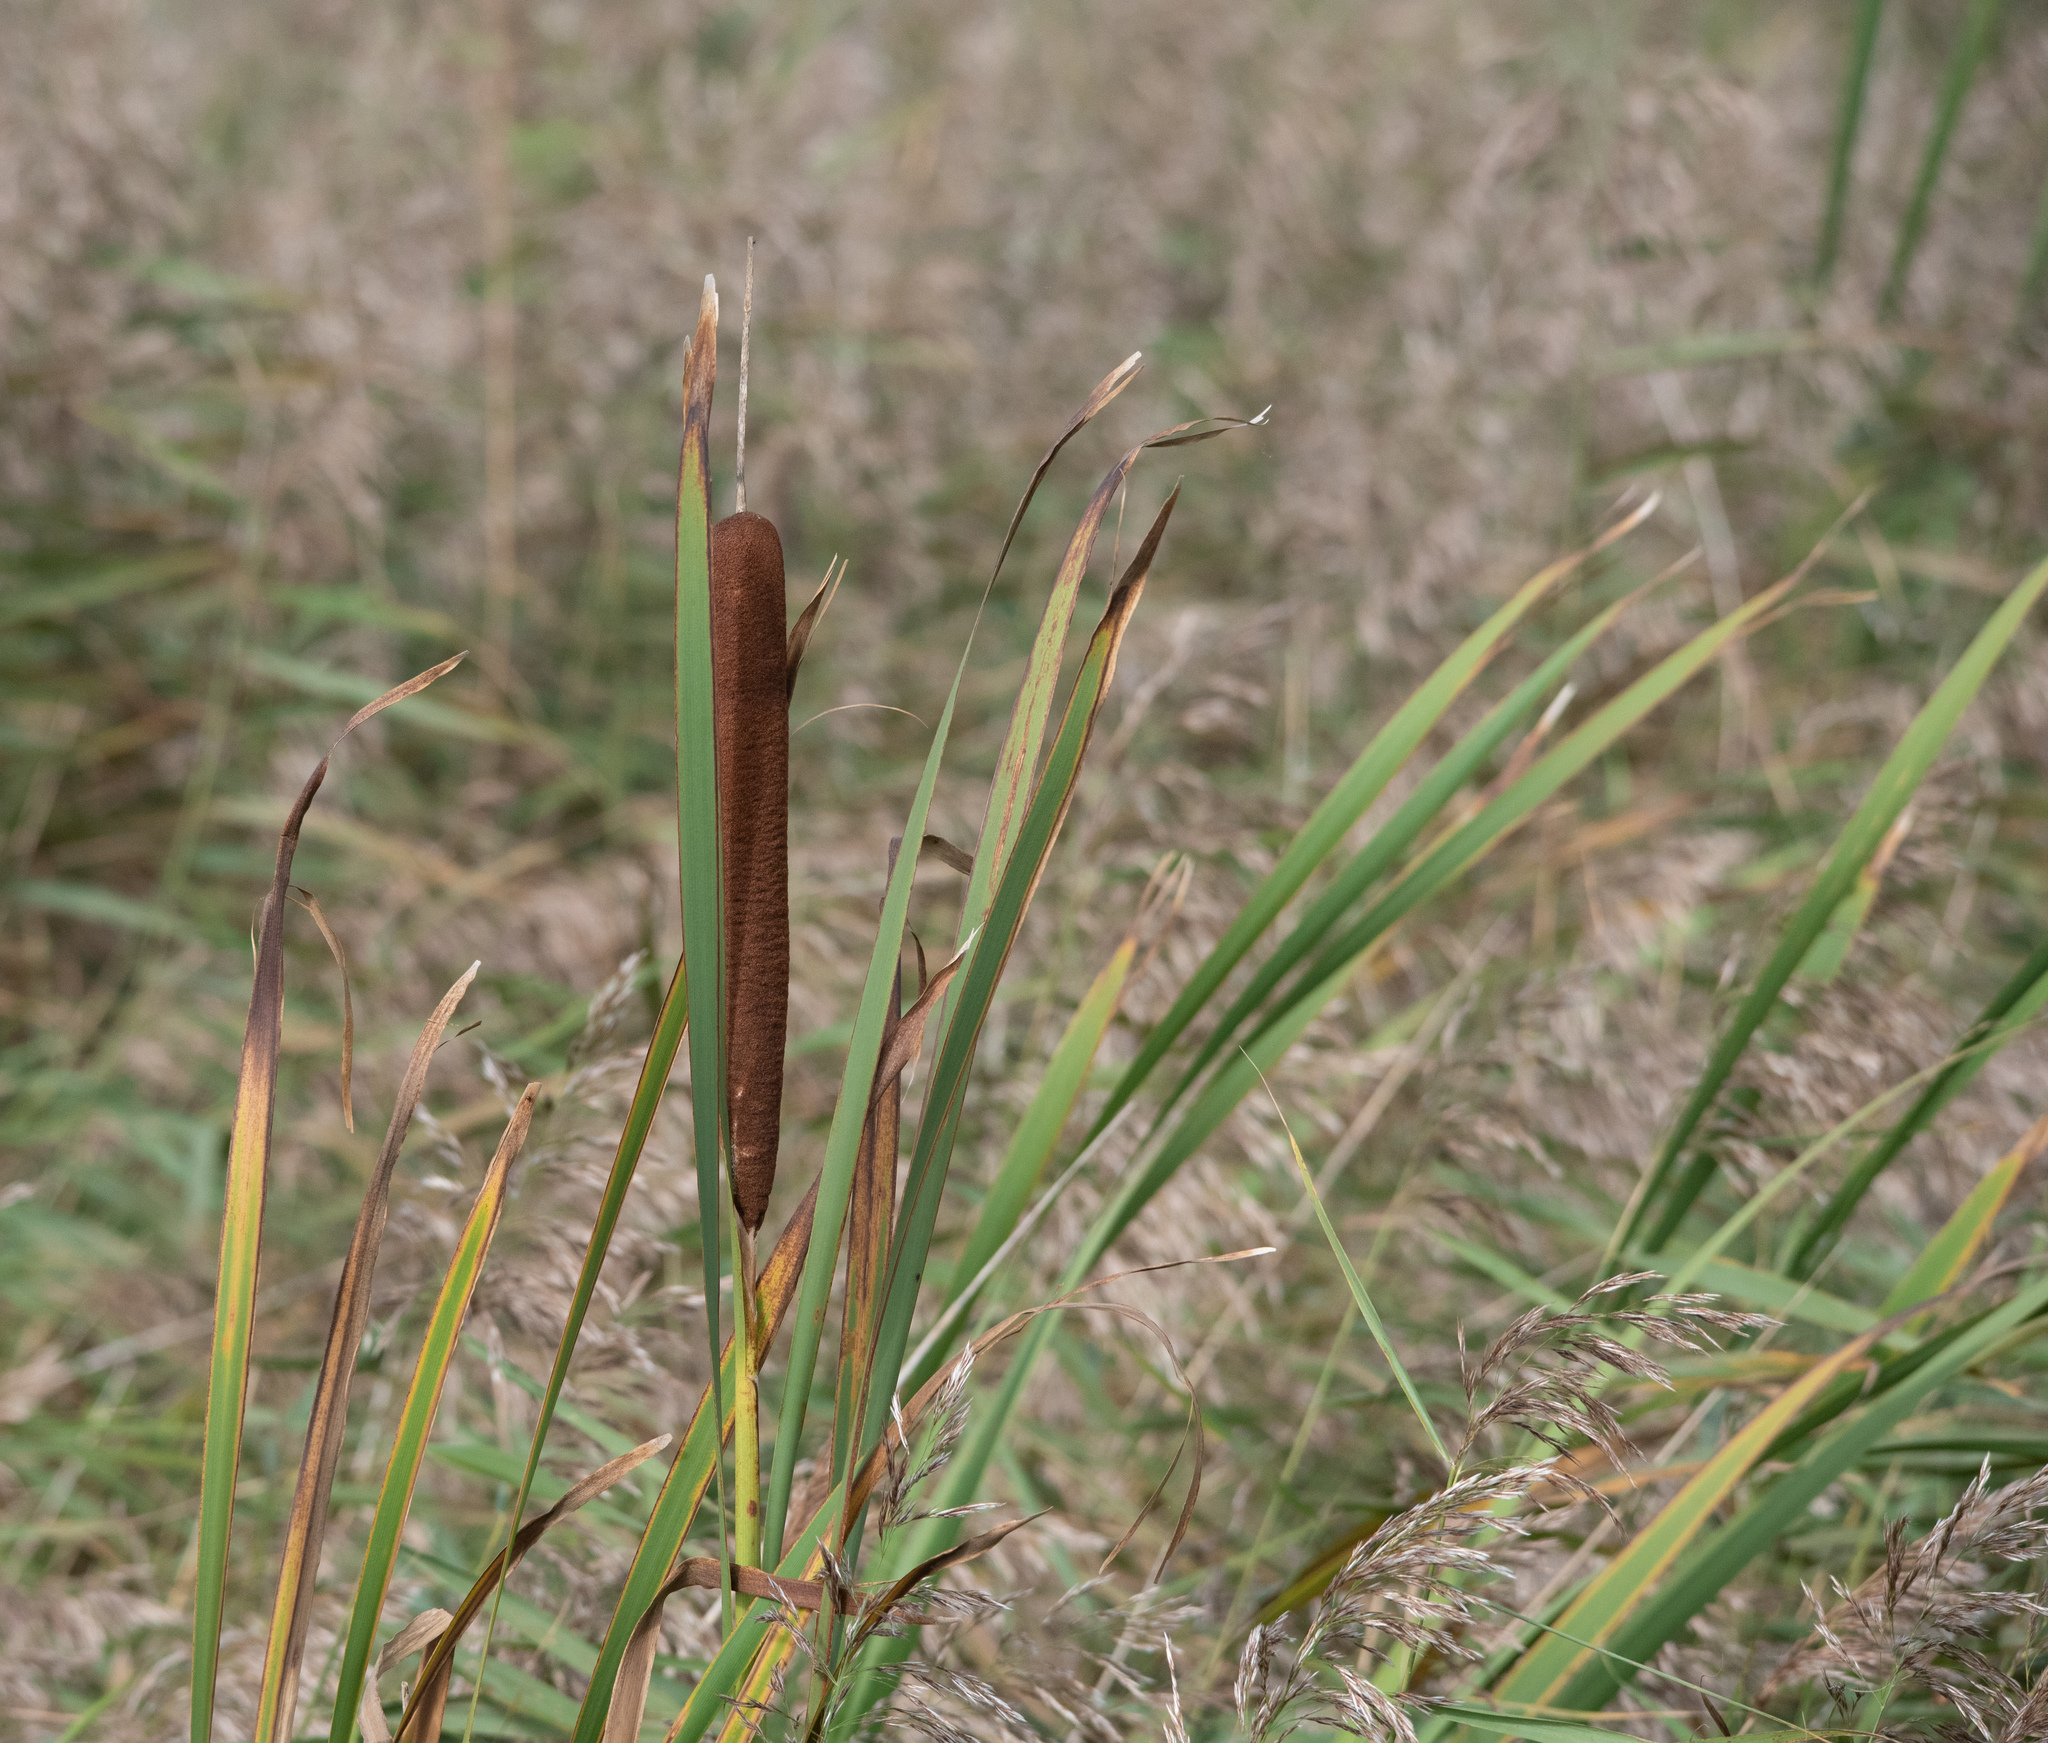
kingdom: Plantae
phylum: Tracheophyta
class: Liliopsida
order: Poales
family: Typhaceae
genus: Typha
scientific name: Typha latifolia
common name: Broadleaf cattail
